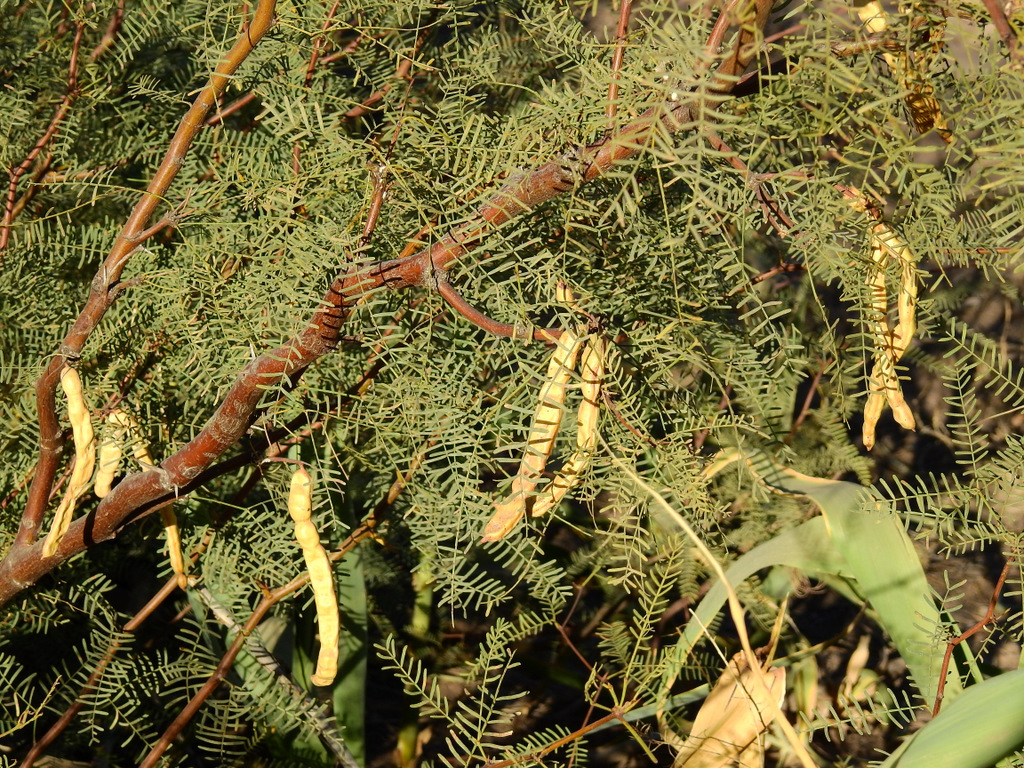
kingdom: Plantae
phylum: Tracheophyta
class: Magnoliopsida
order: Fabales
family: Fabaceae
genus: Prosopis
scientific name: Prosopis flexuosa
